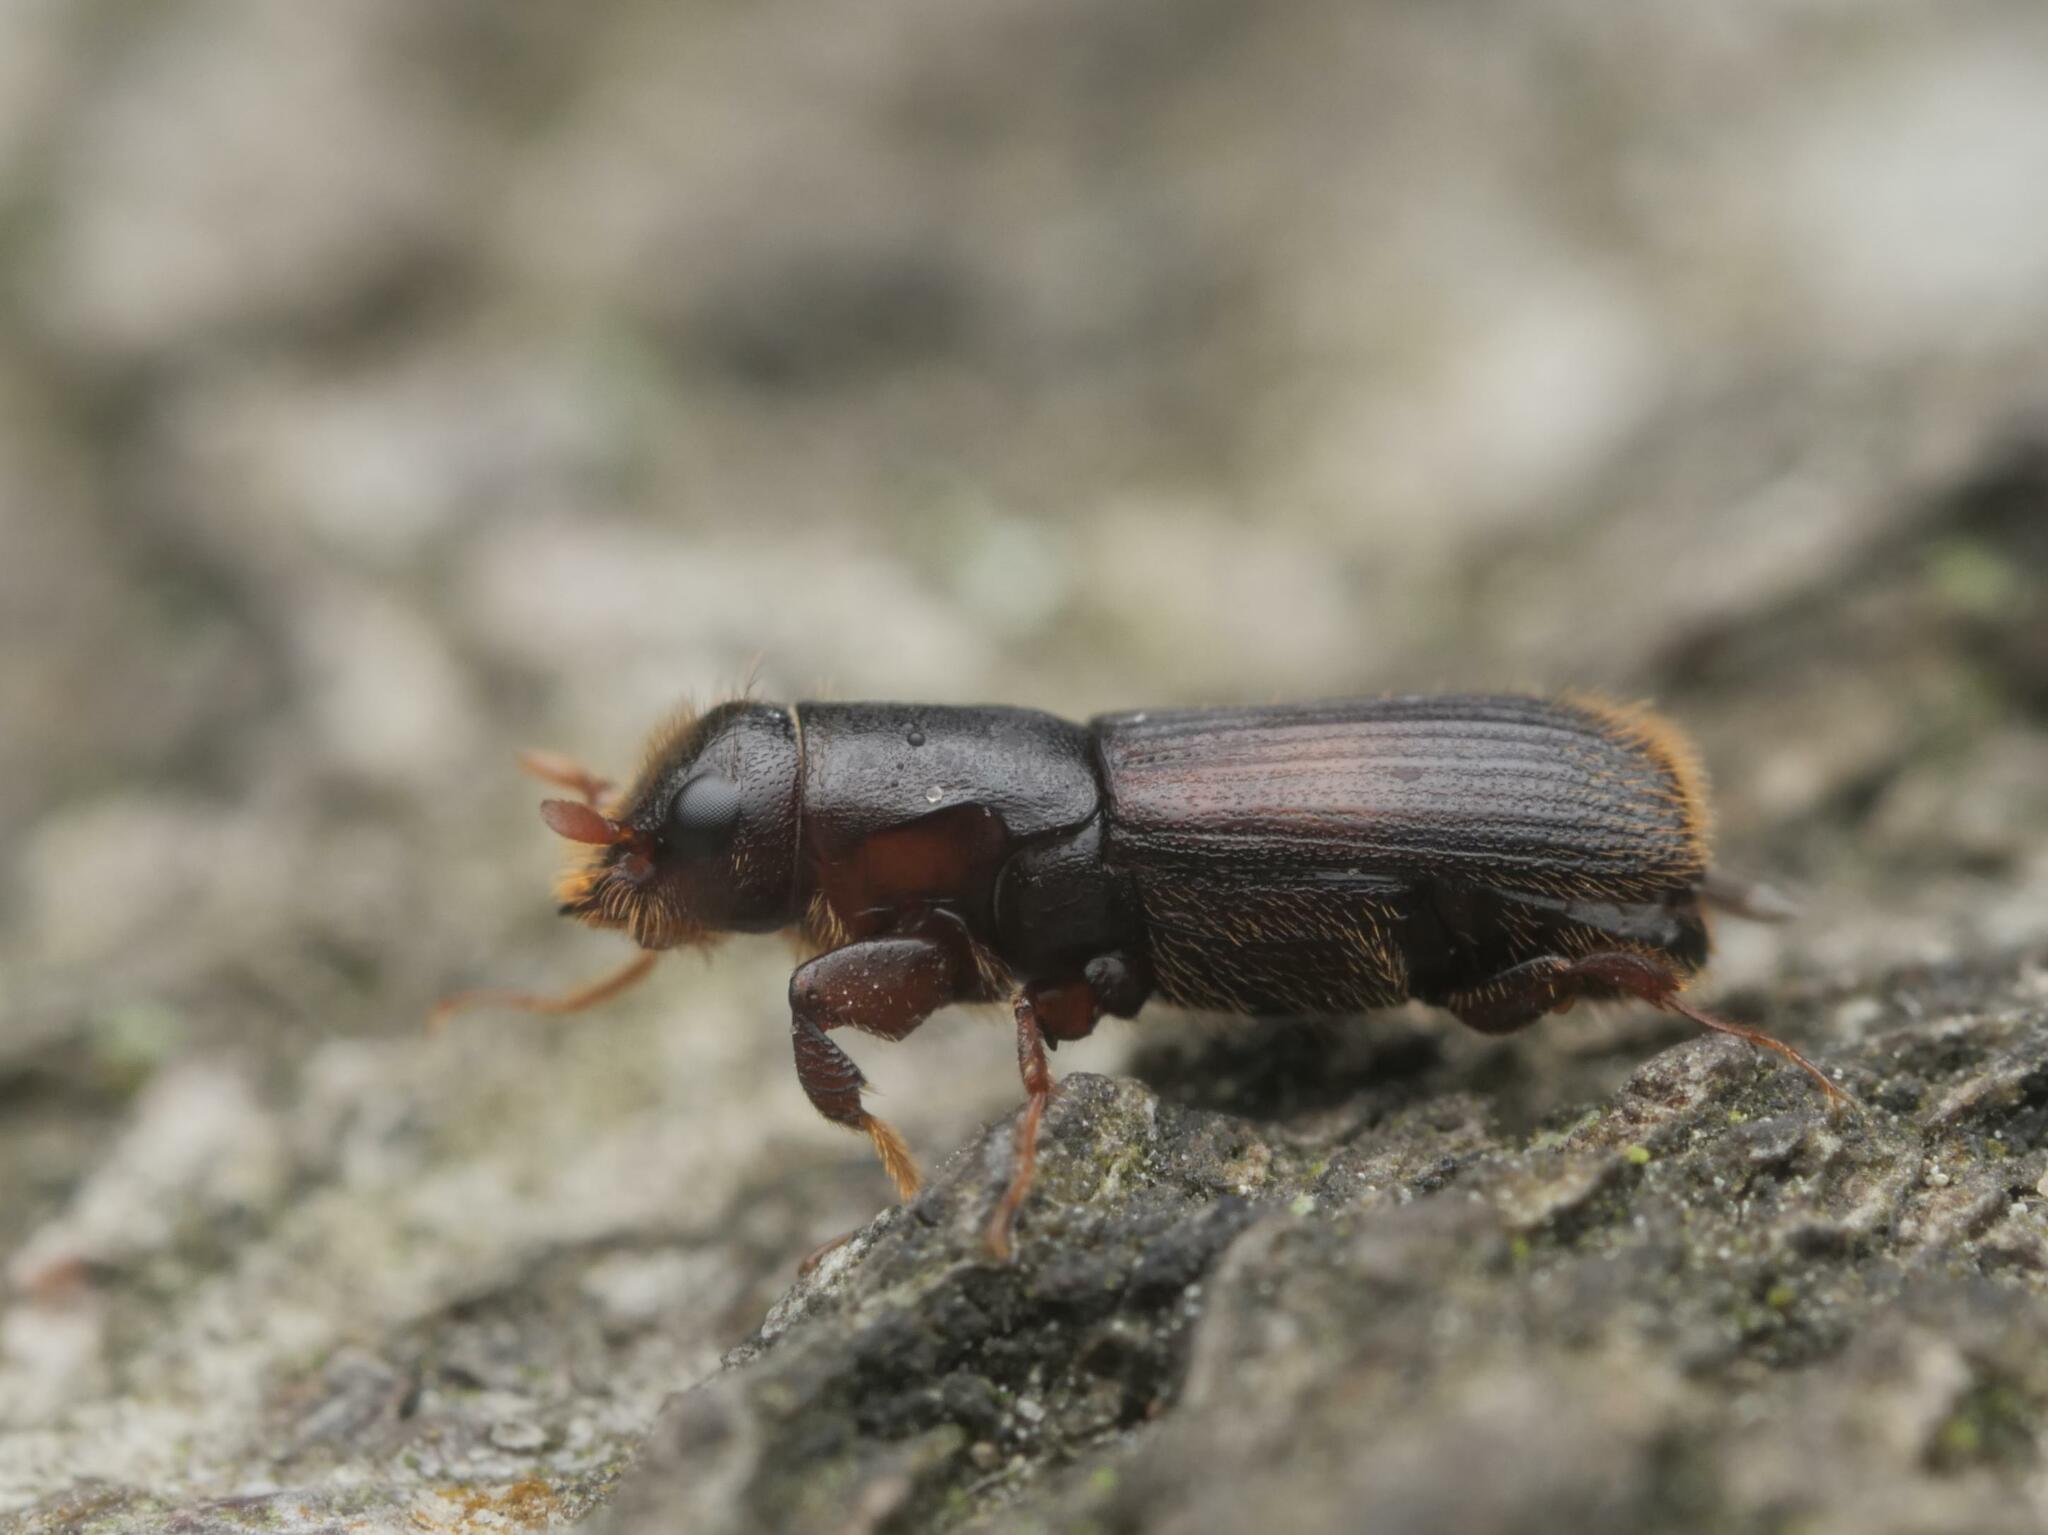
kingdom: Animalia
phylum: Arthropoda
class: Insecta
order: Coleoptera
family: Curculionidae
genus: Platypus
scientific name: Platypus cylindrus
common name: Pinhole borer
